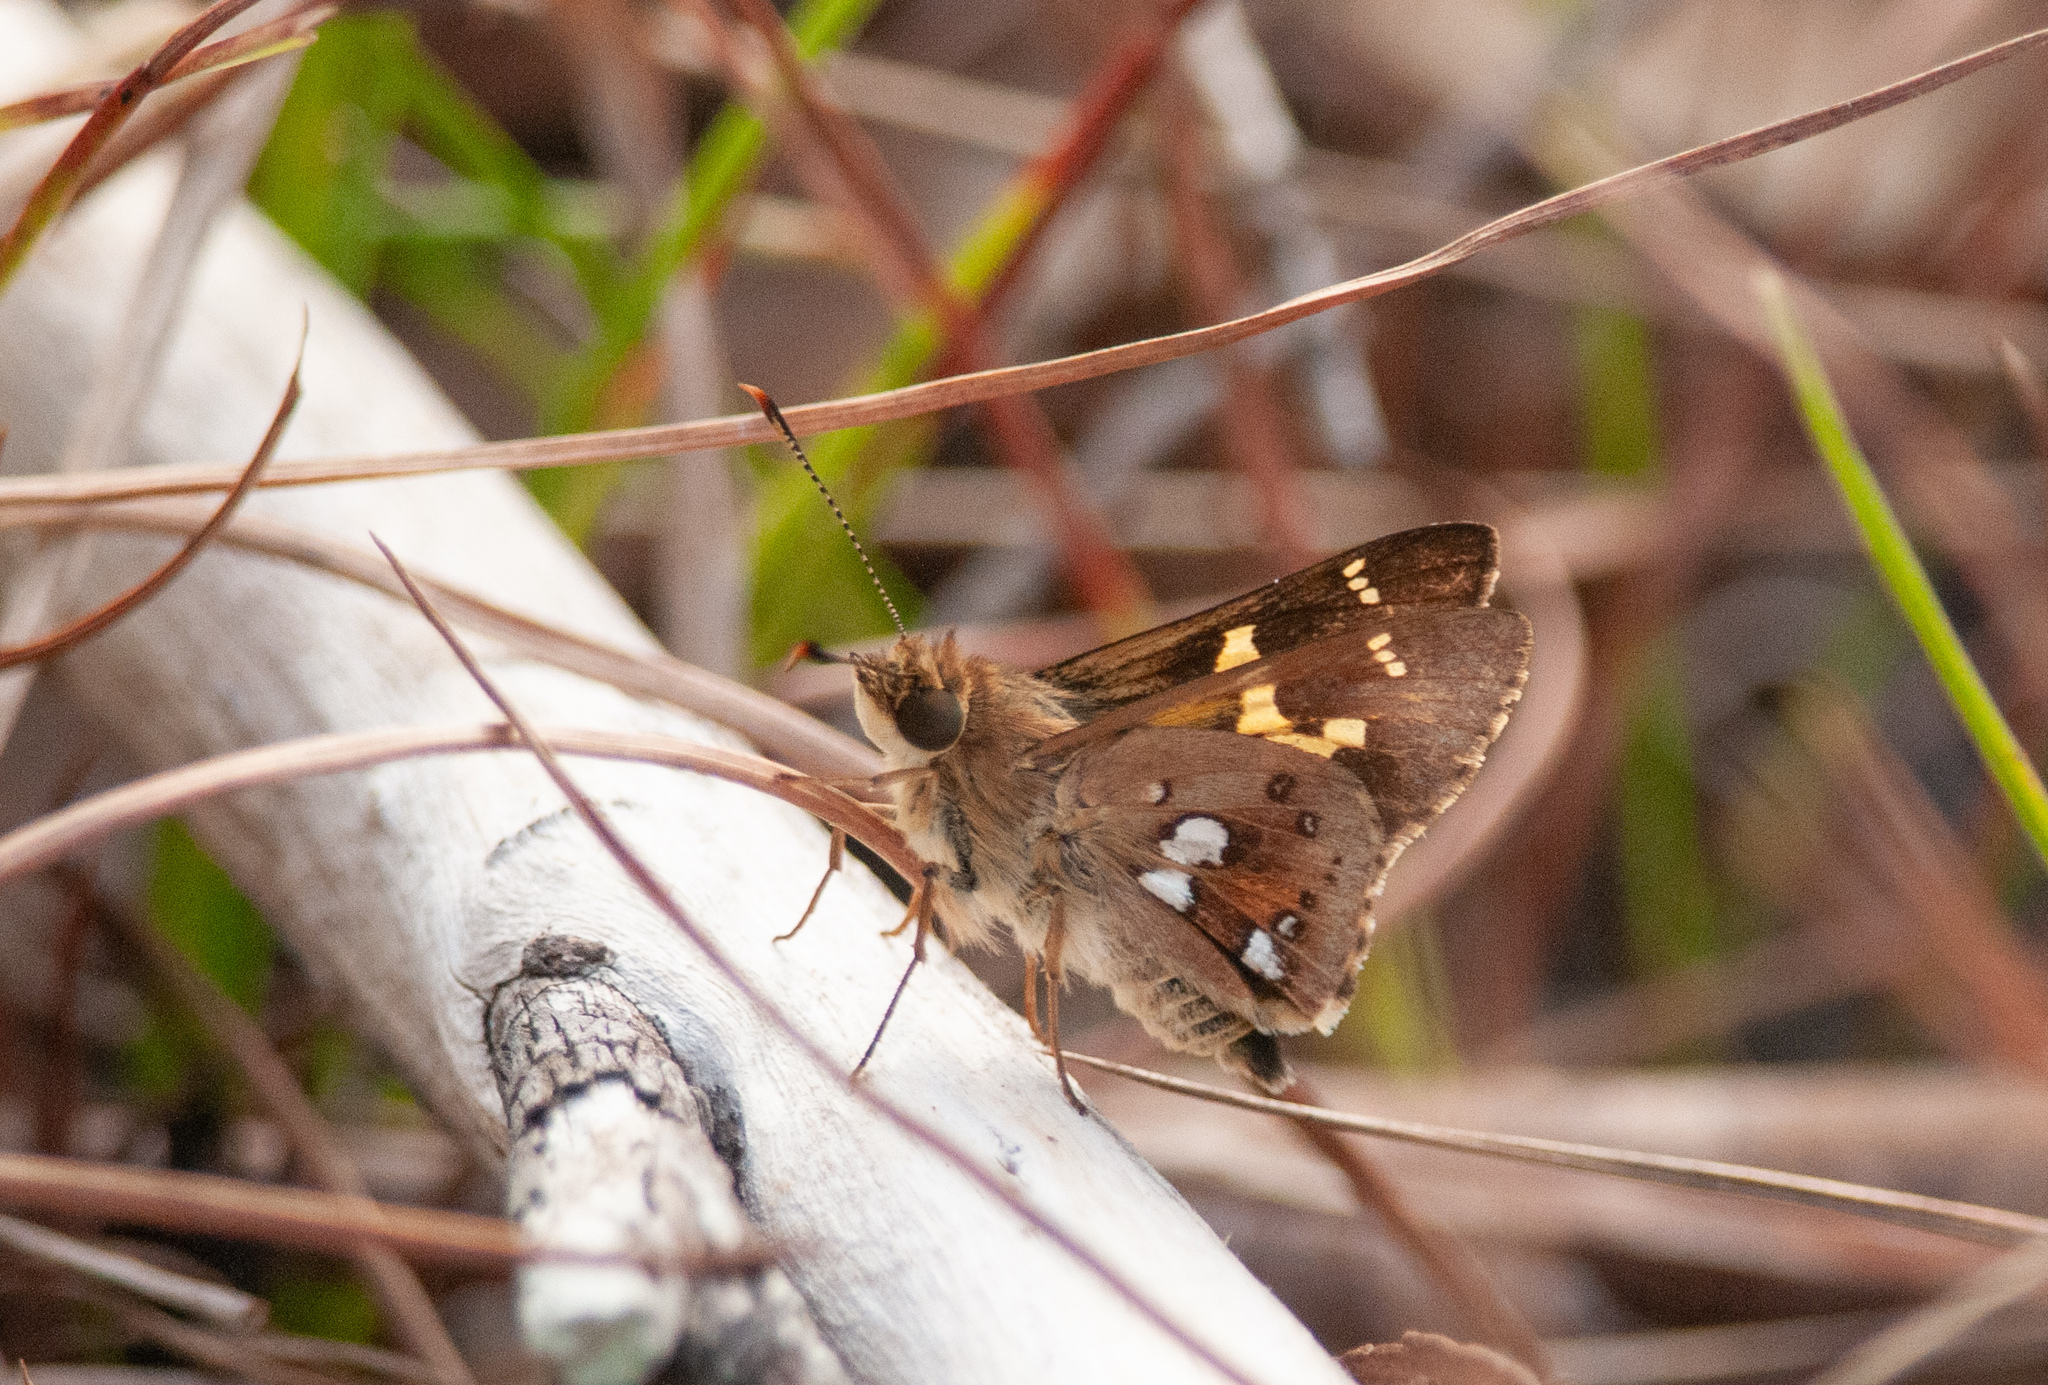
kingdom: Animalia
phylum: Arthropoda
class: Insecta
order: Lepidoptera
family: Hesperiidae
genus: Trapezites
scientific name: Trapezites maheta
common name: Northern silver ochre
